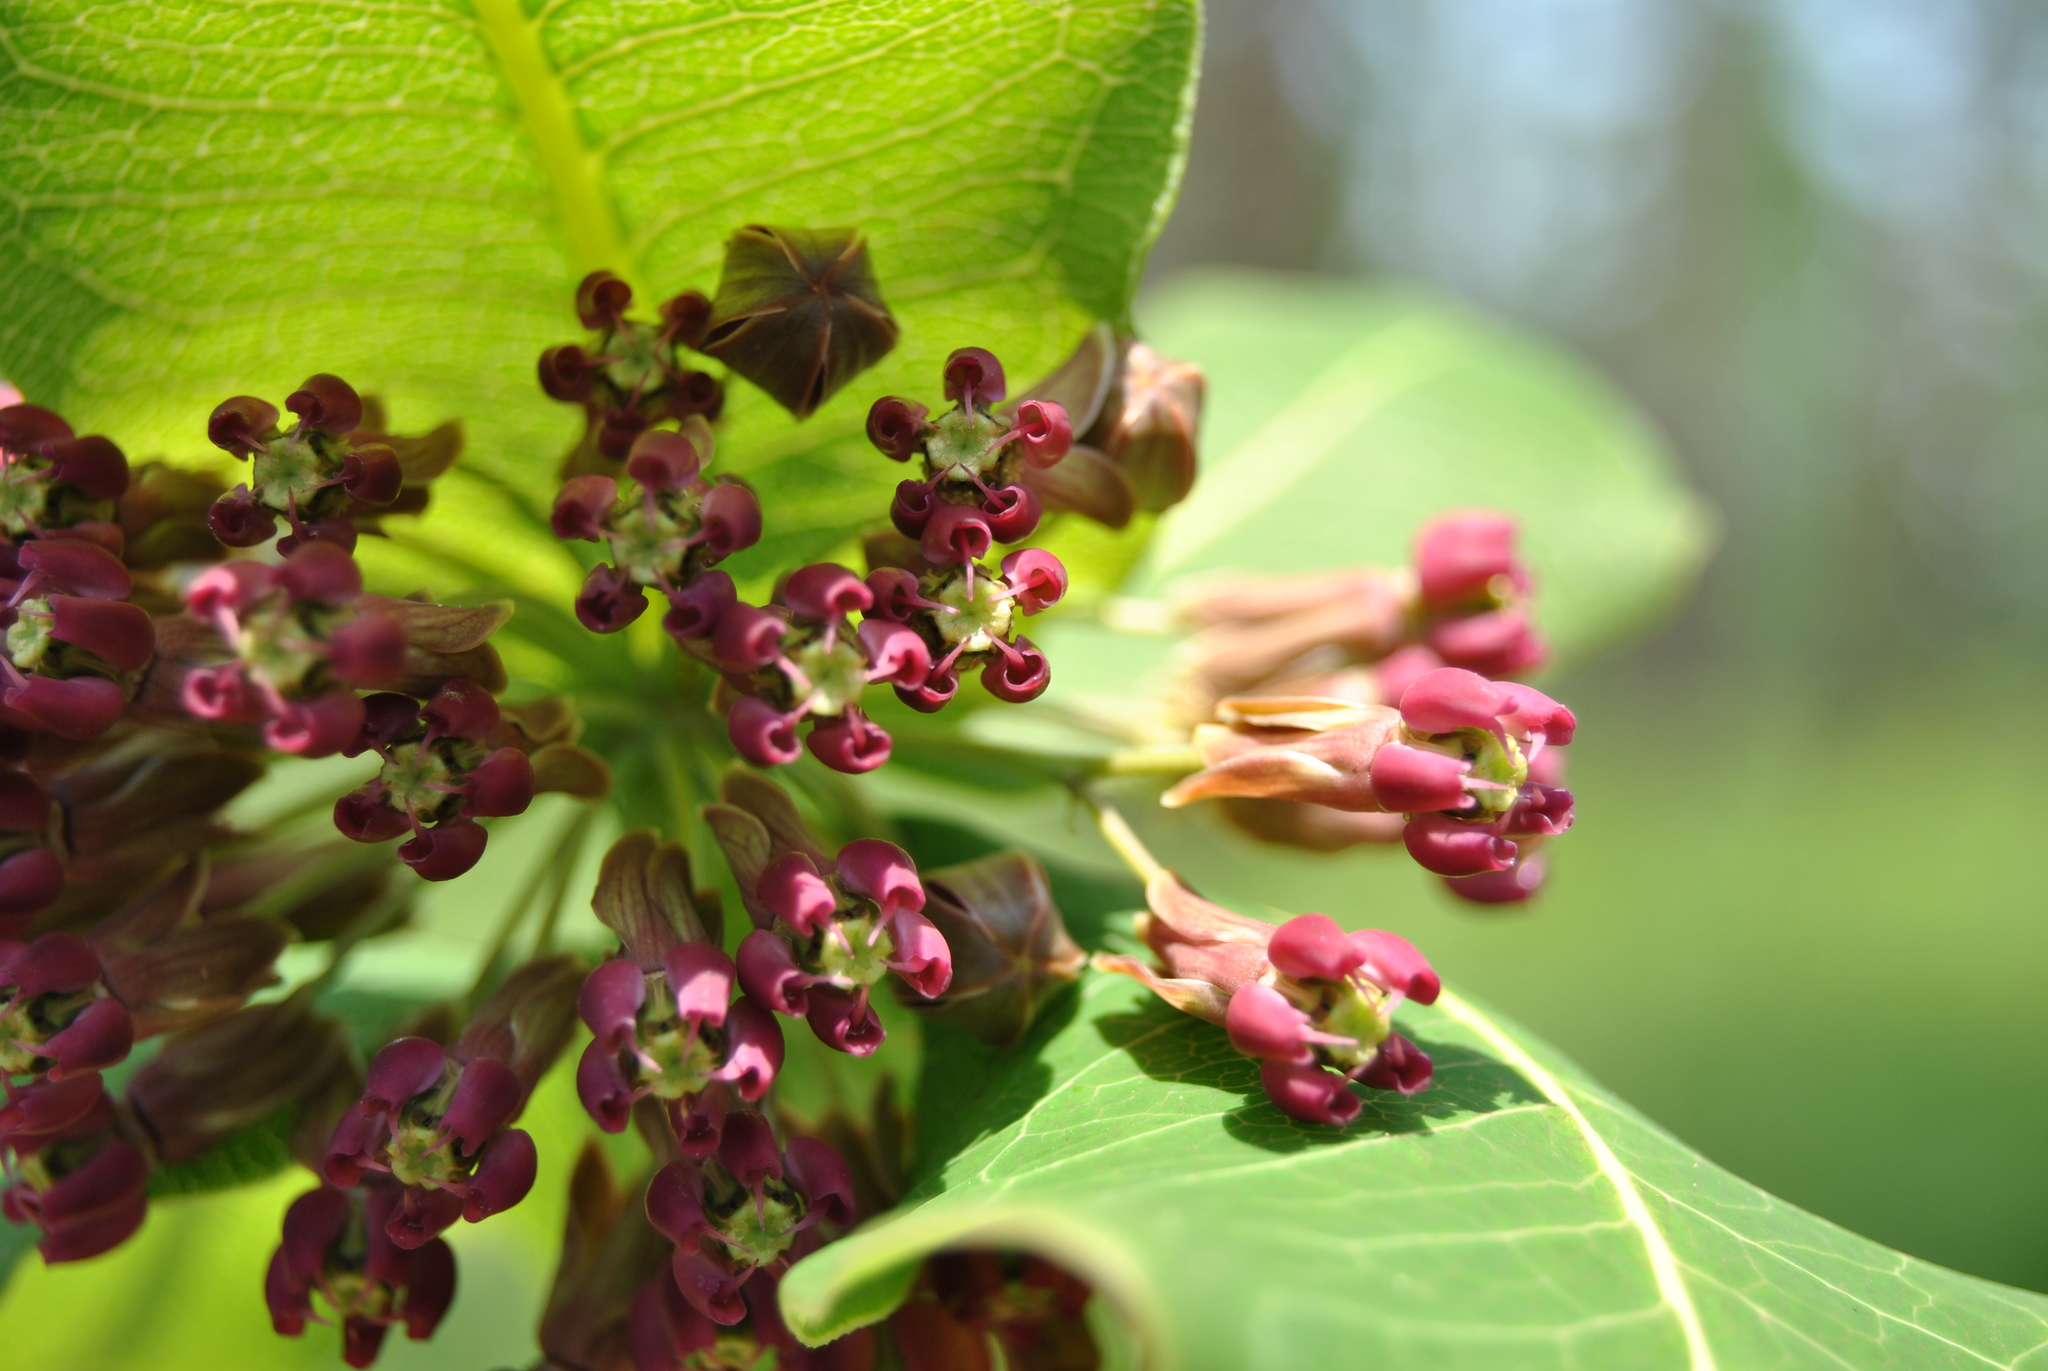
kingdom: Plantae
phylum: Tracheophyta
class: Magnoliopsida
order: Gentianales
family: Apocynaceae
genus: Asclepias
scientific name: Asclepias amplexicaulis
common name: Blunt-leaf milkweed
